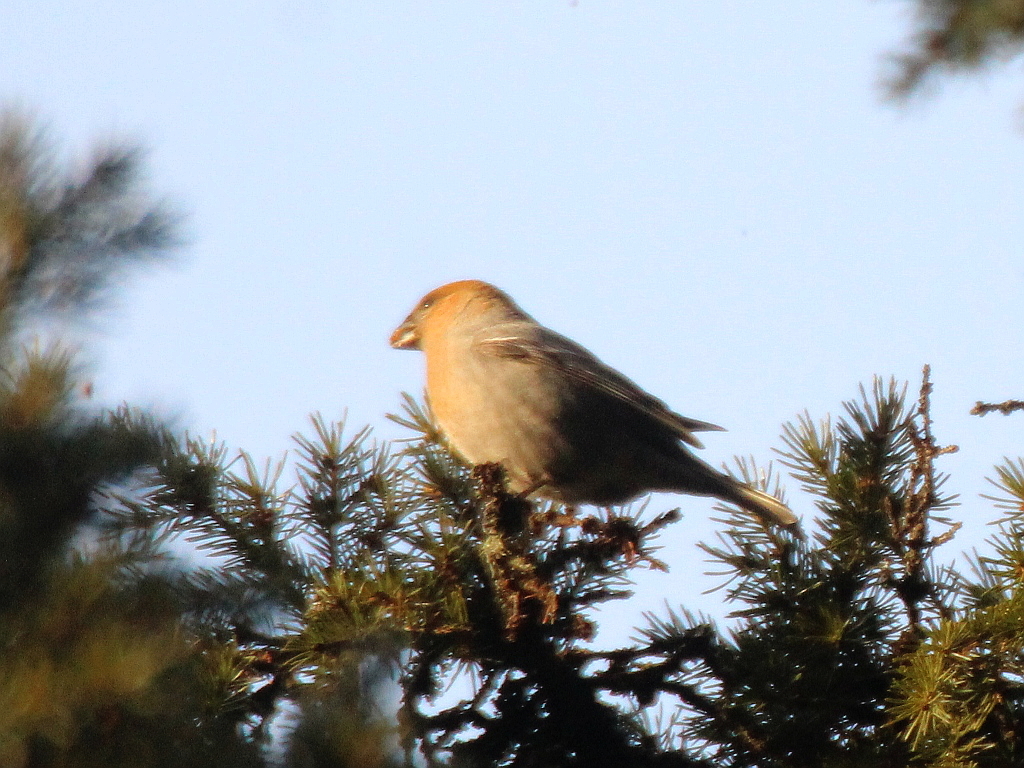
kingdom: Animalia
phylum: Chordata
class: Aves
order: Passeriformes
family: Fringillidae
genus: Pinicola
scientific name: Pinicola enucleator
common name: Pine grosbeak
